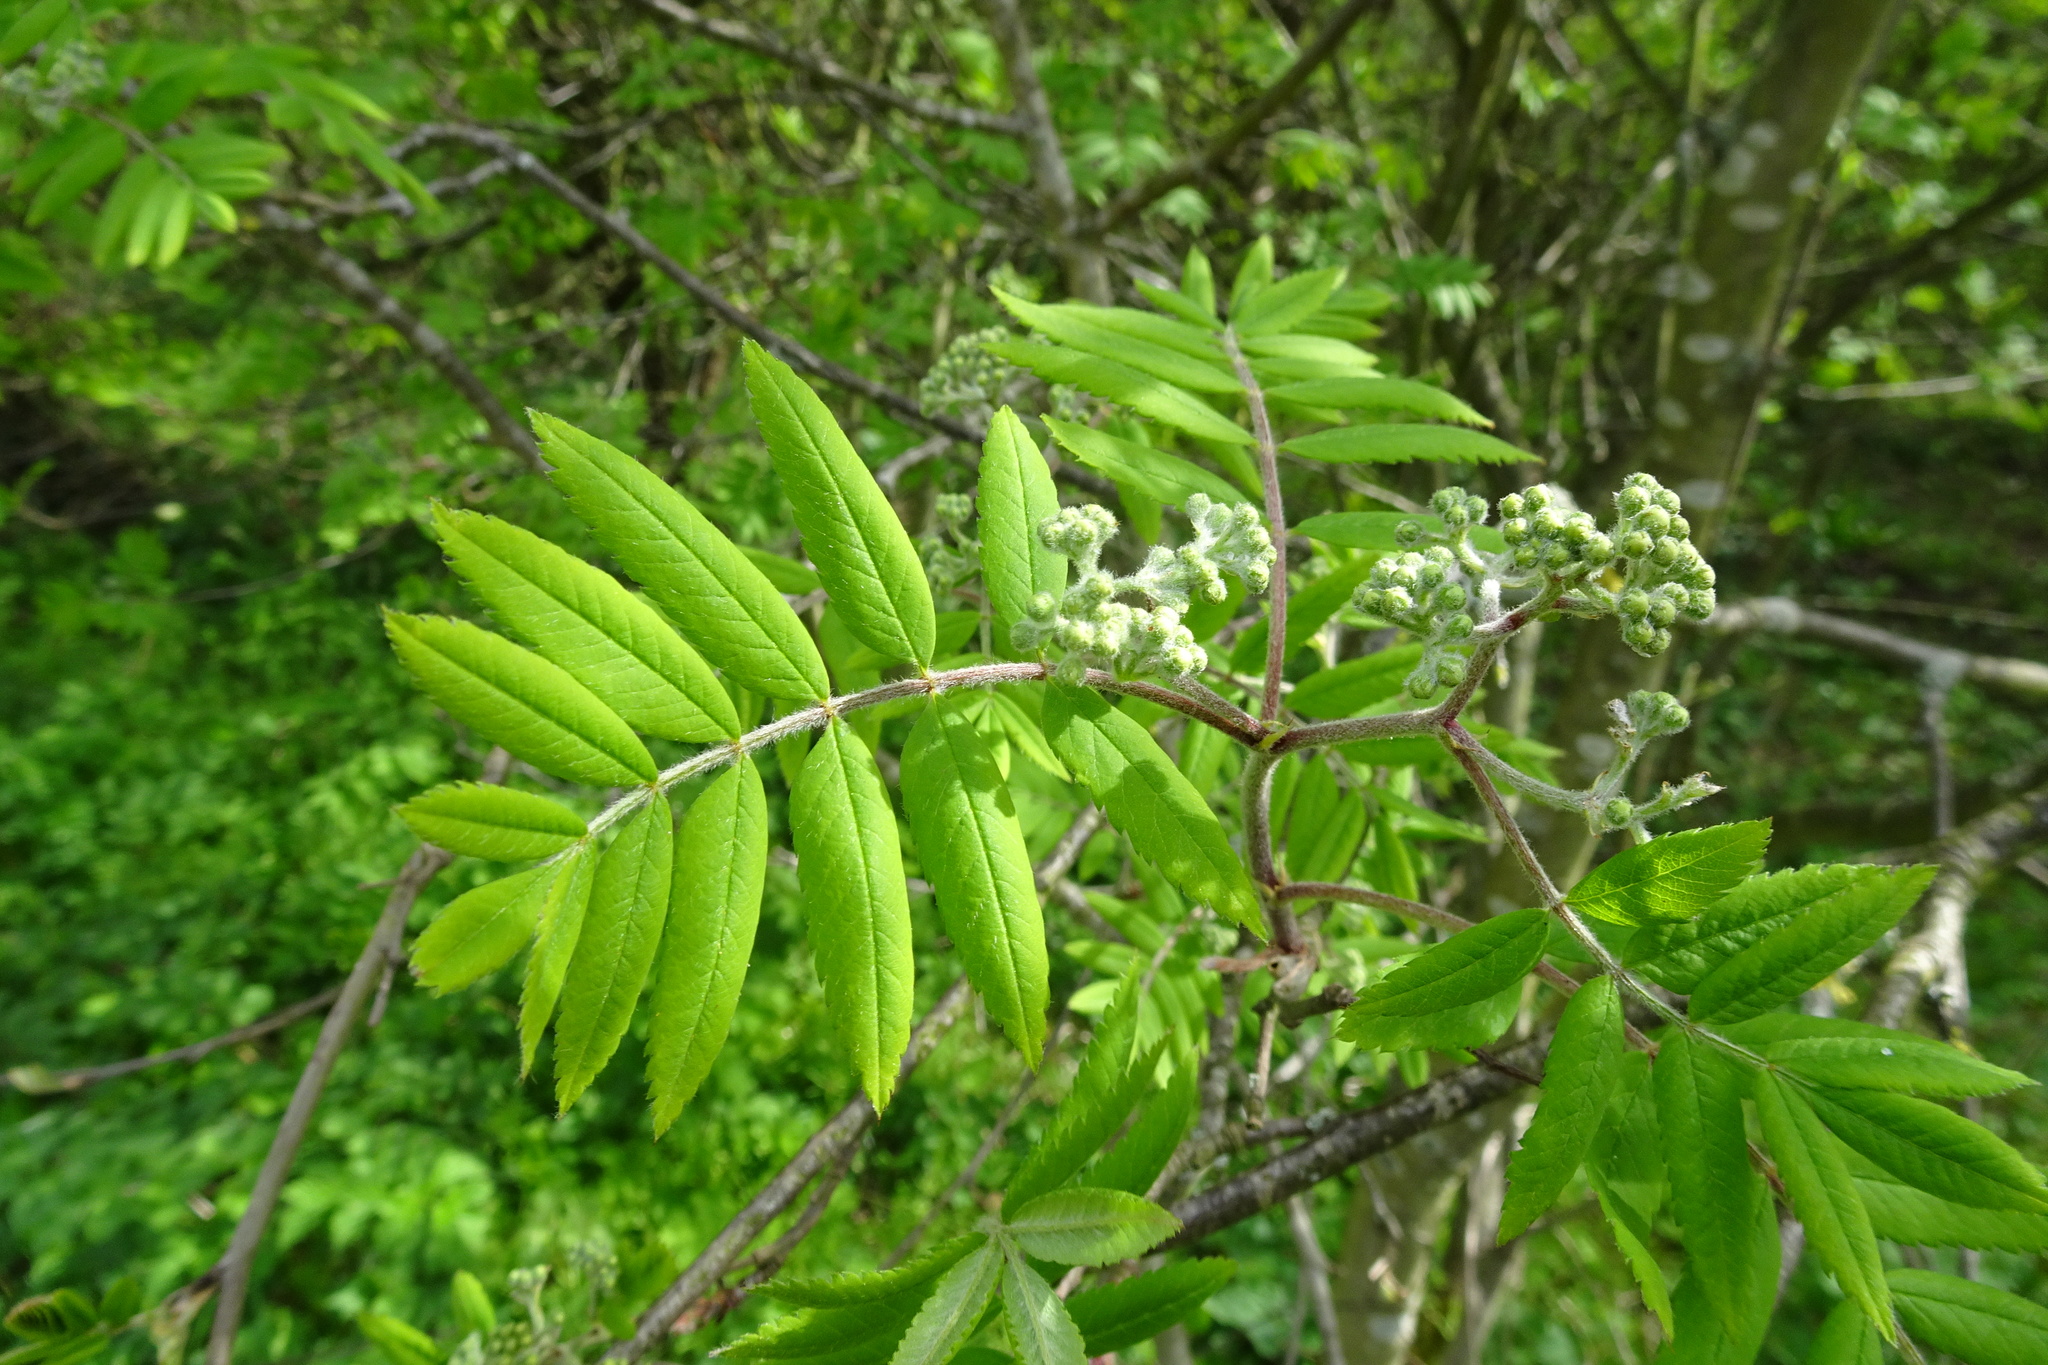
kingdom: Plantae
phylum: Tracheophyta
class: Magnoliopsida
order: Rosales
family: Rosaceae
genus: Sorbus
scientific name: Sorbus aucuparia
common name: Rowan
